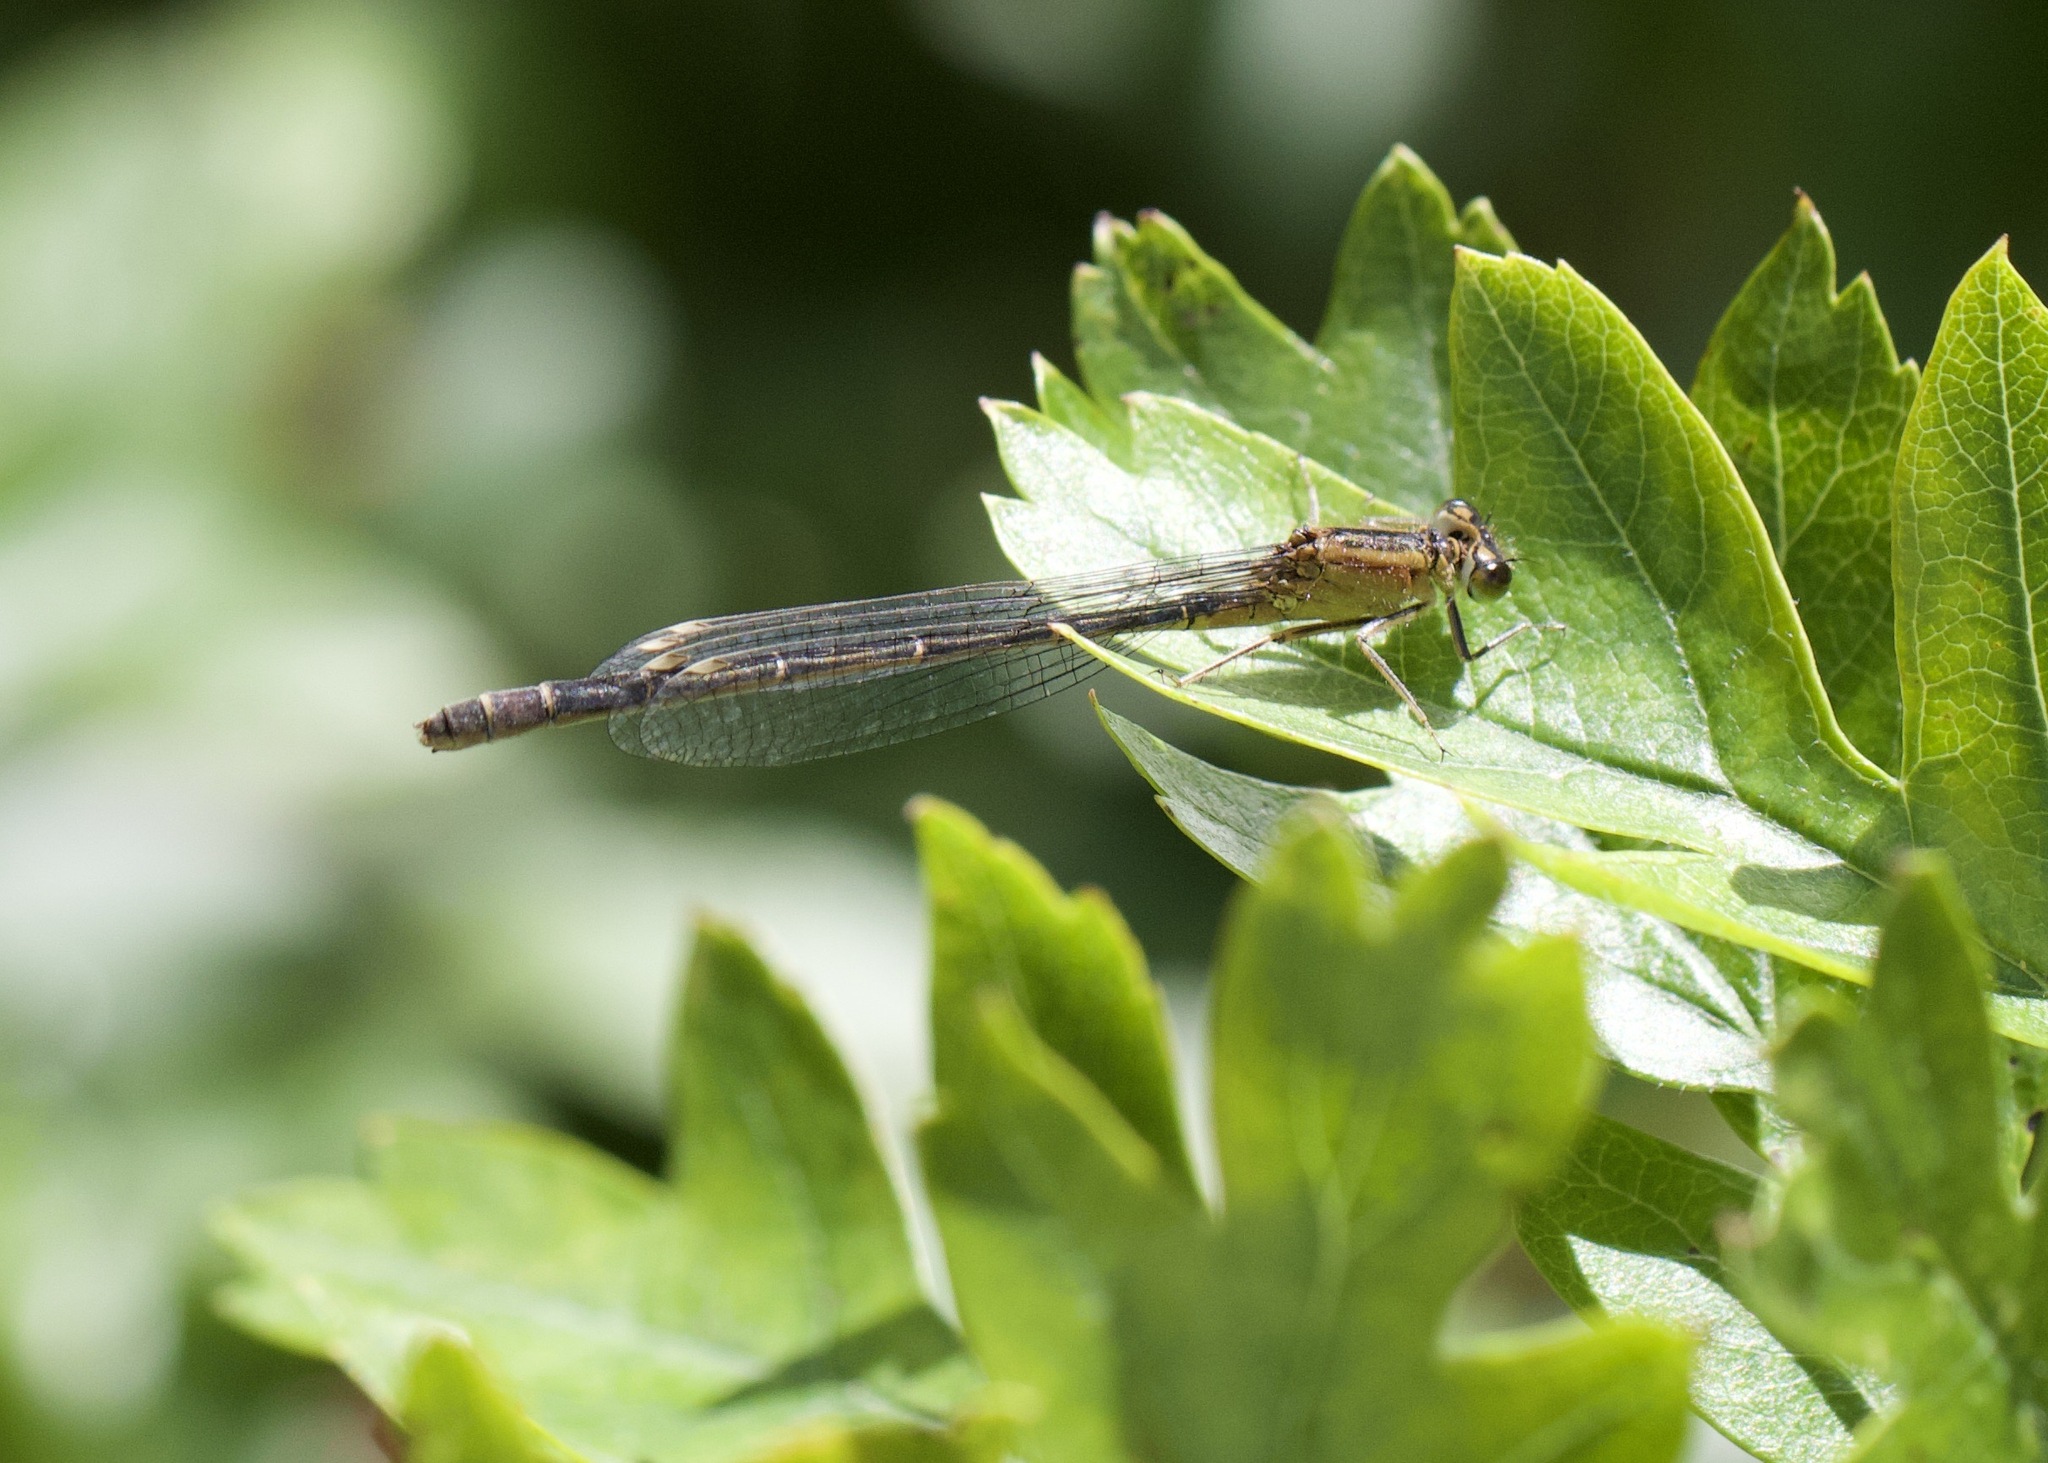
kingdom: Animalia
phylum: Arthropoda
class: Insecta
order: Odonata
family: Coenagrionidae
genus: Ischnura
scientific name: Ischnura elegans
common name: Blue-tailed damselfly
